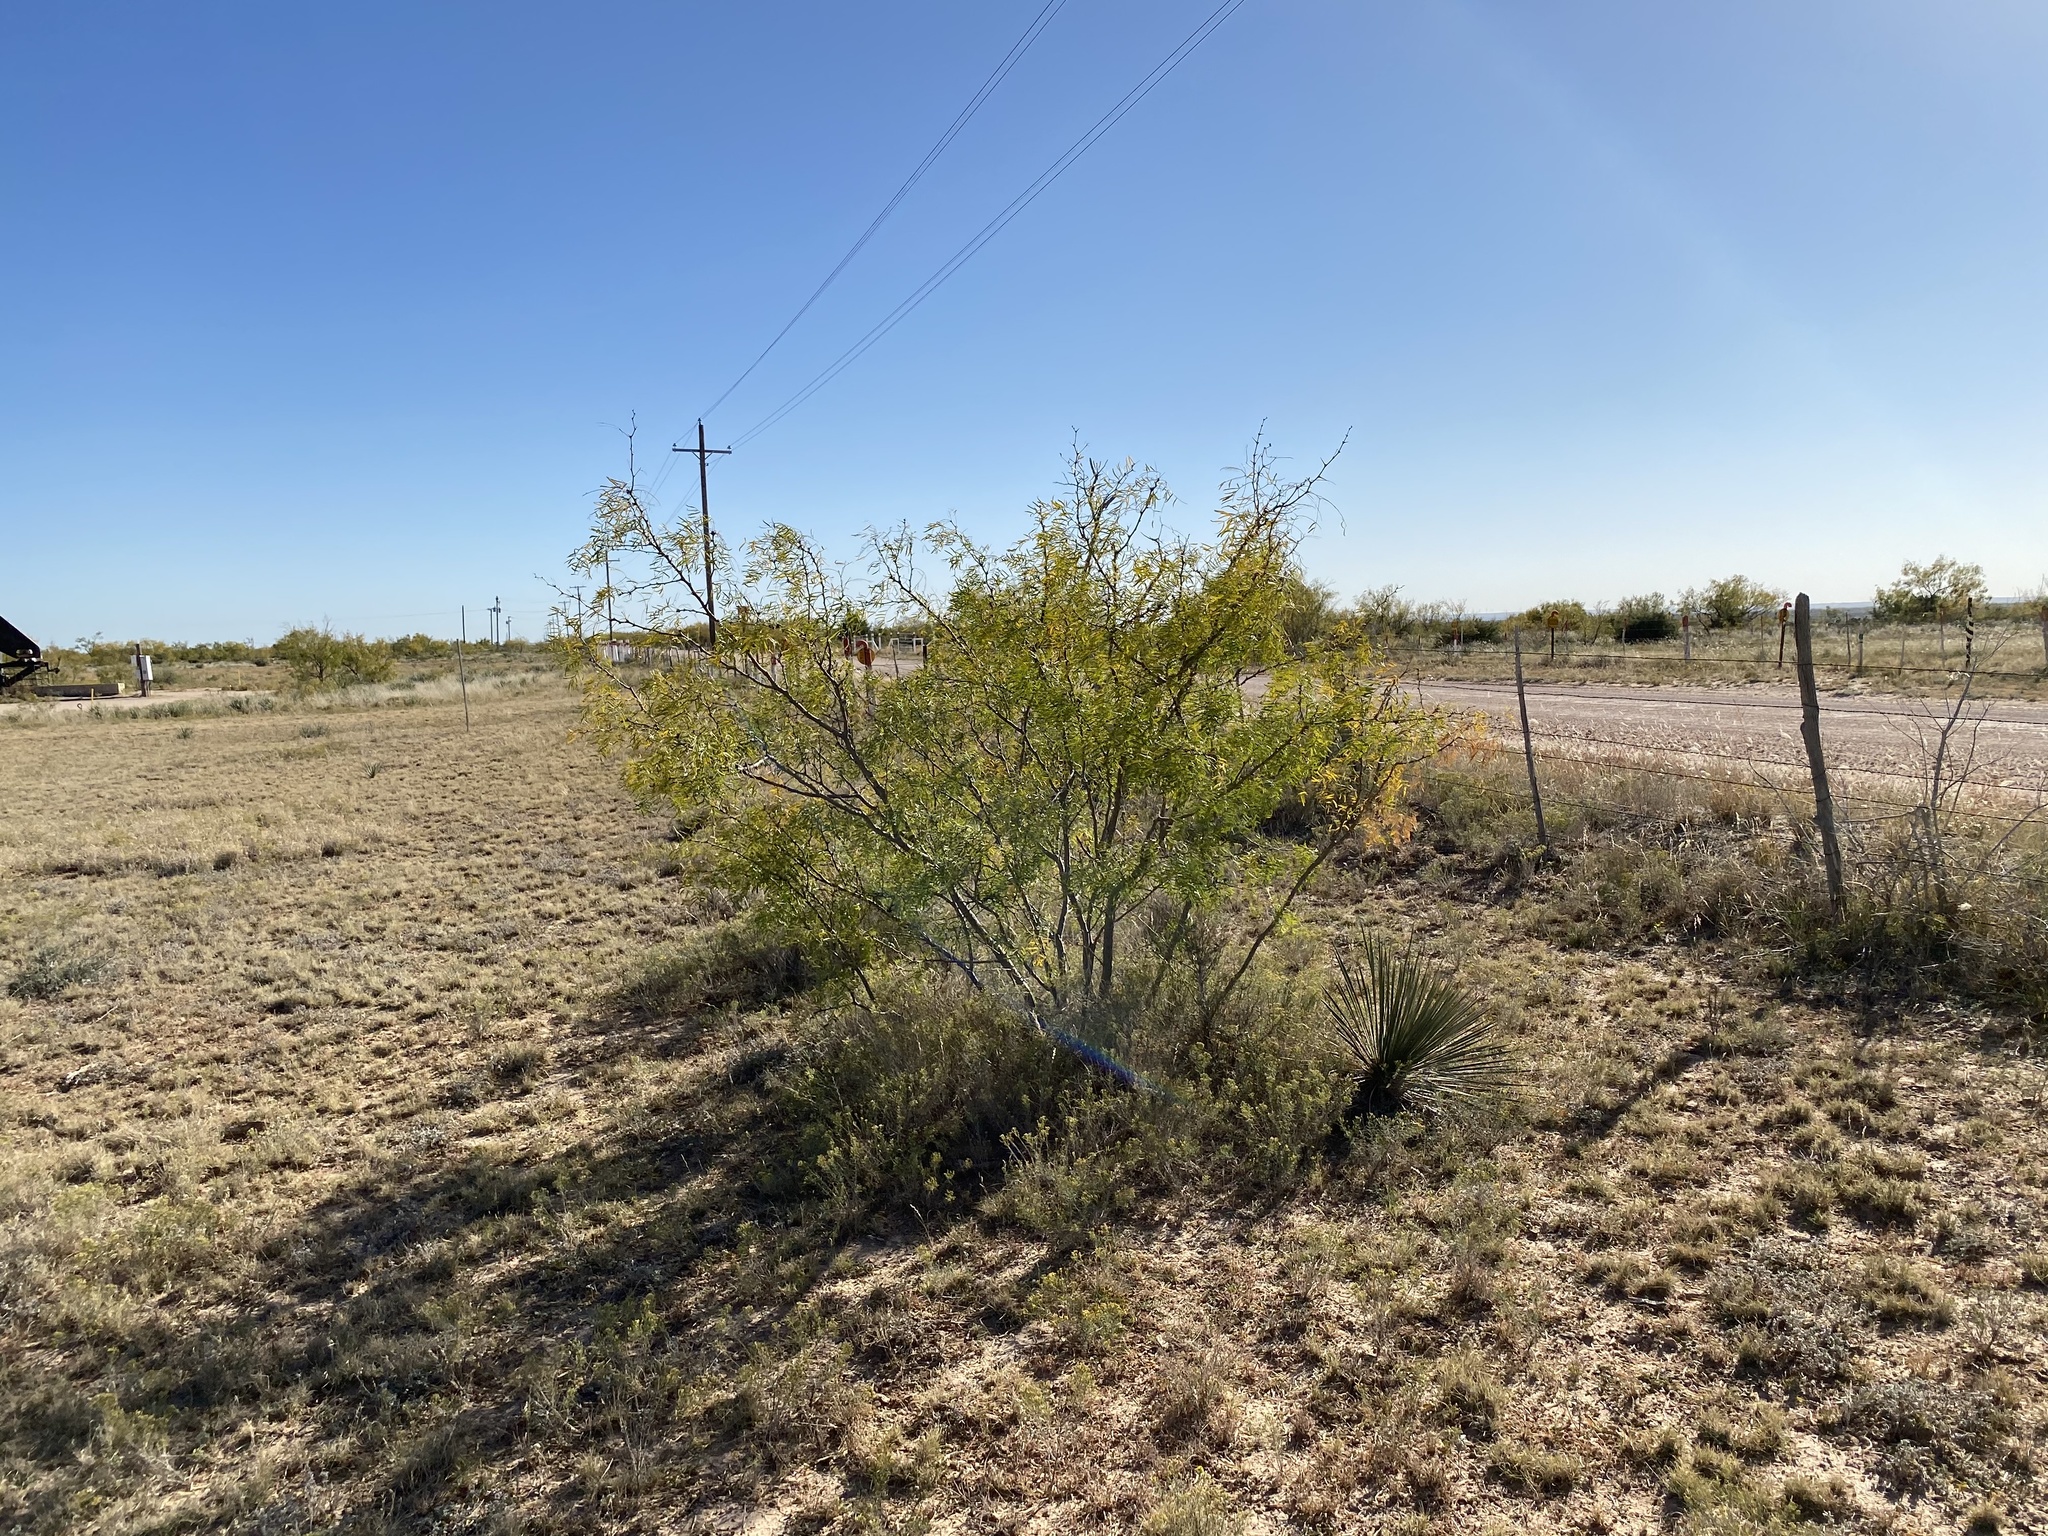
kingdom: Plantae
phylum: Tracheophyta
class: Magnoliopsida
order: Fabales
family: Fabaceae
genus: Prosopis
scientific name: Prosopis glandulosa
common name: Honey mesquite
